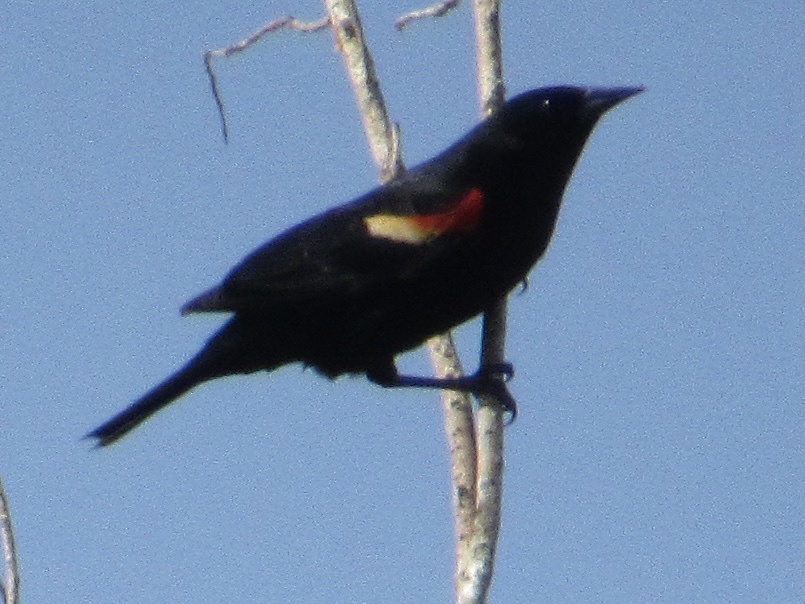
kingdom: Animalia
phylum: Chordata
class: Aves
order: Passeriformes
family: Icteridae
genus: Agelaius
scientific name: Agelaius phoeniceus
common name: Red-winged blackbird
